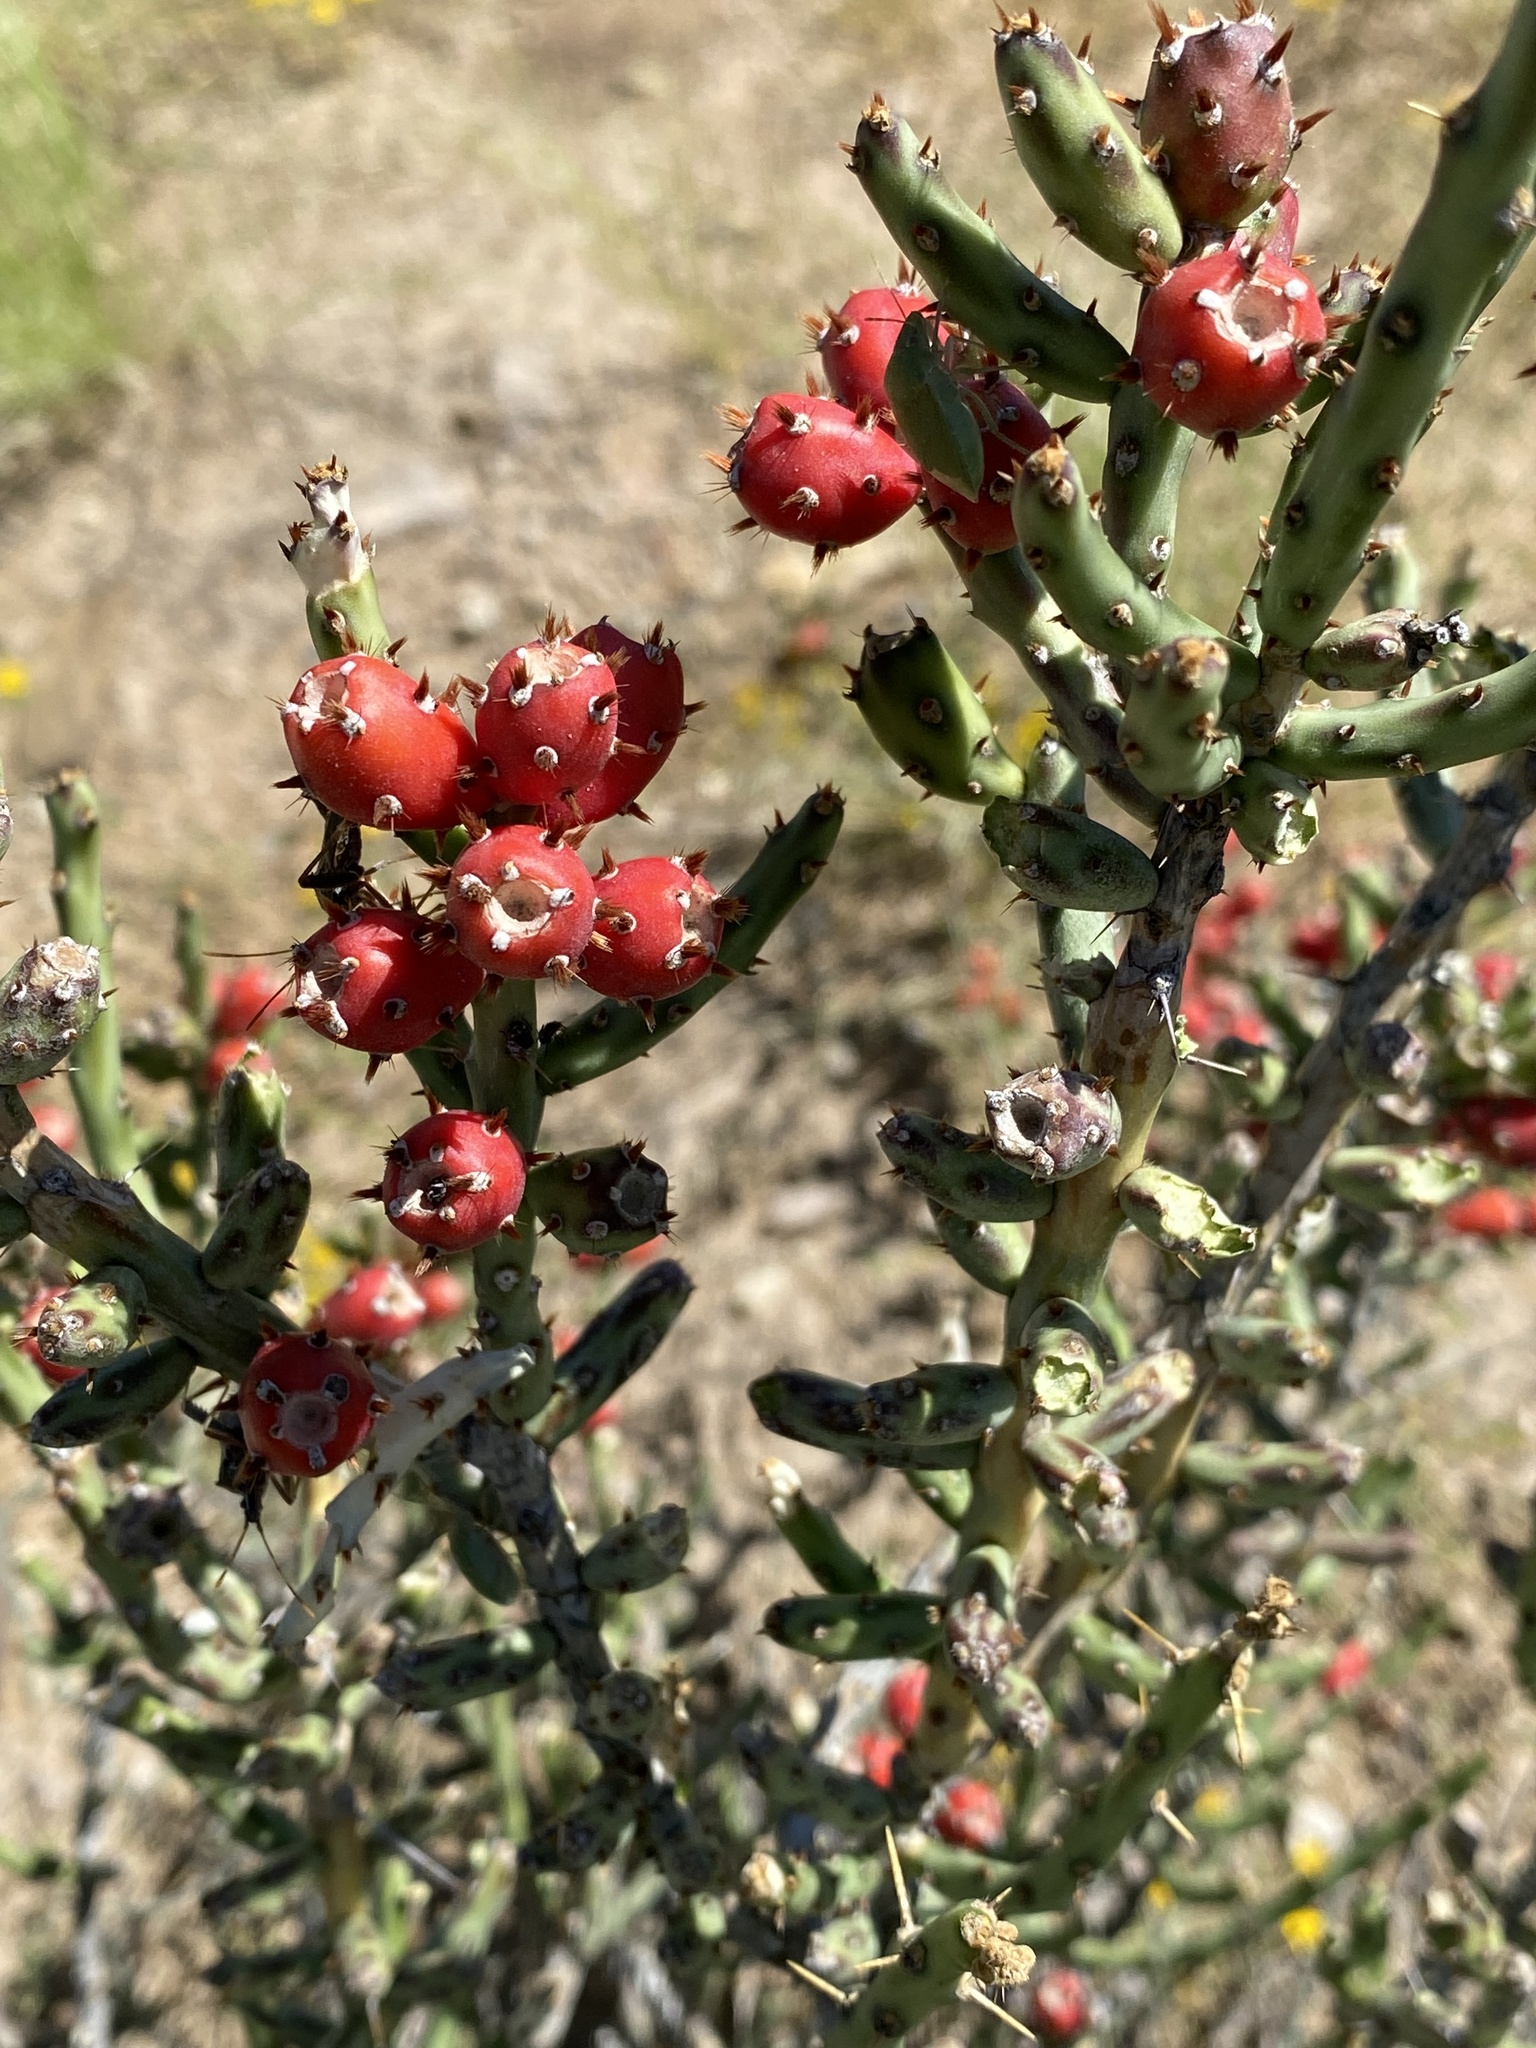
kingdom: Plantae
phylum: Tracheophyta
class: Magnoliopsida
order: Caryophyllales
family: Cactaceae
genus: Cylindropuntia
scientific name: Cylindropuntia leptocaulis
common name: Christmas cactus
